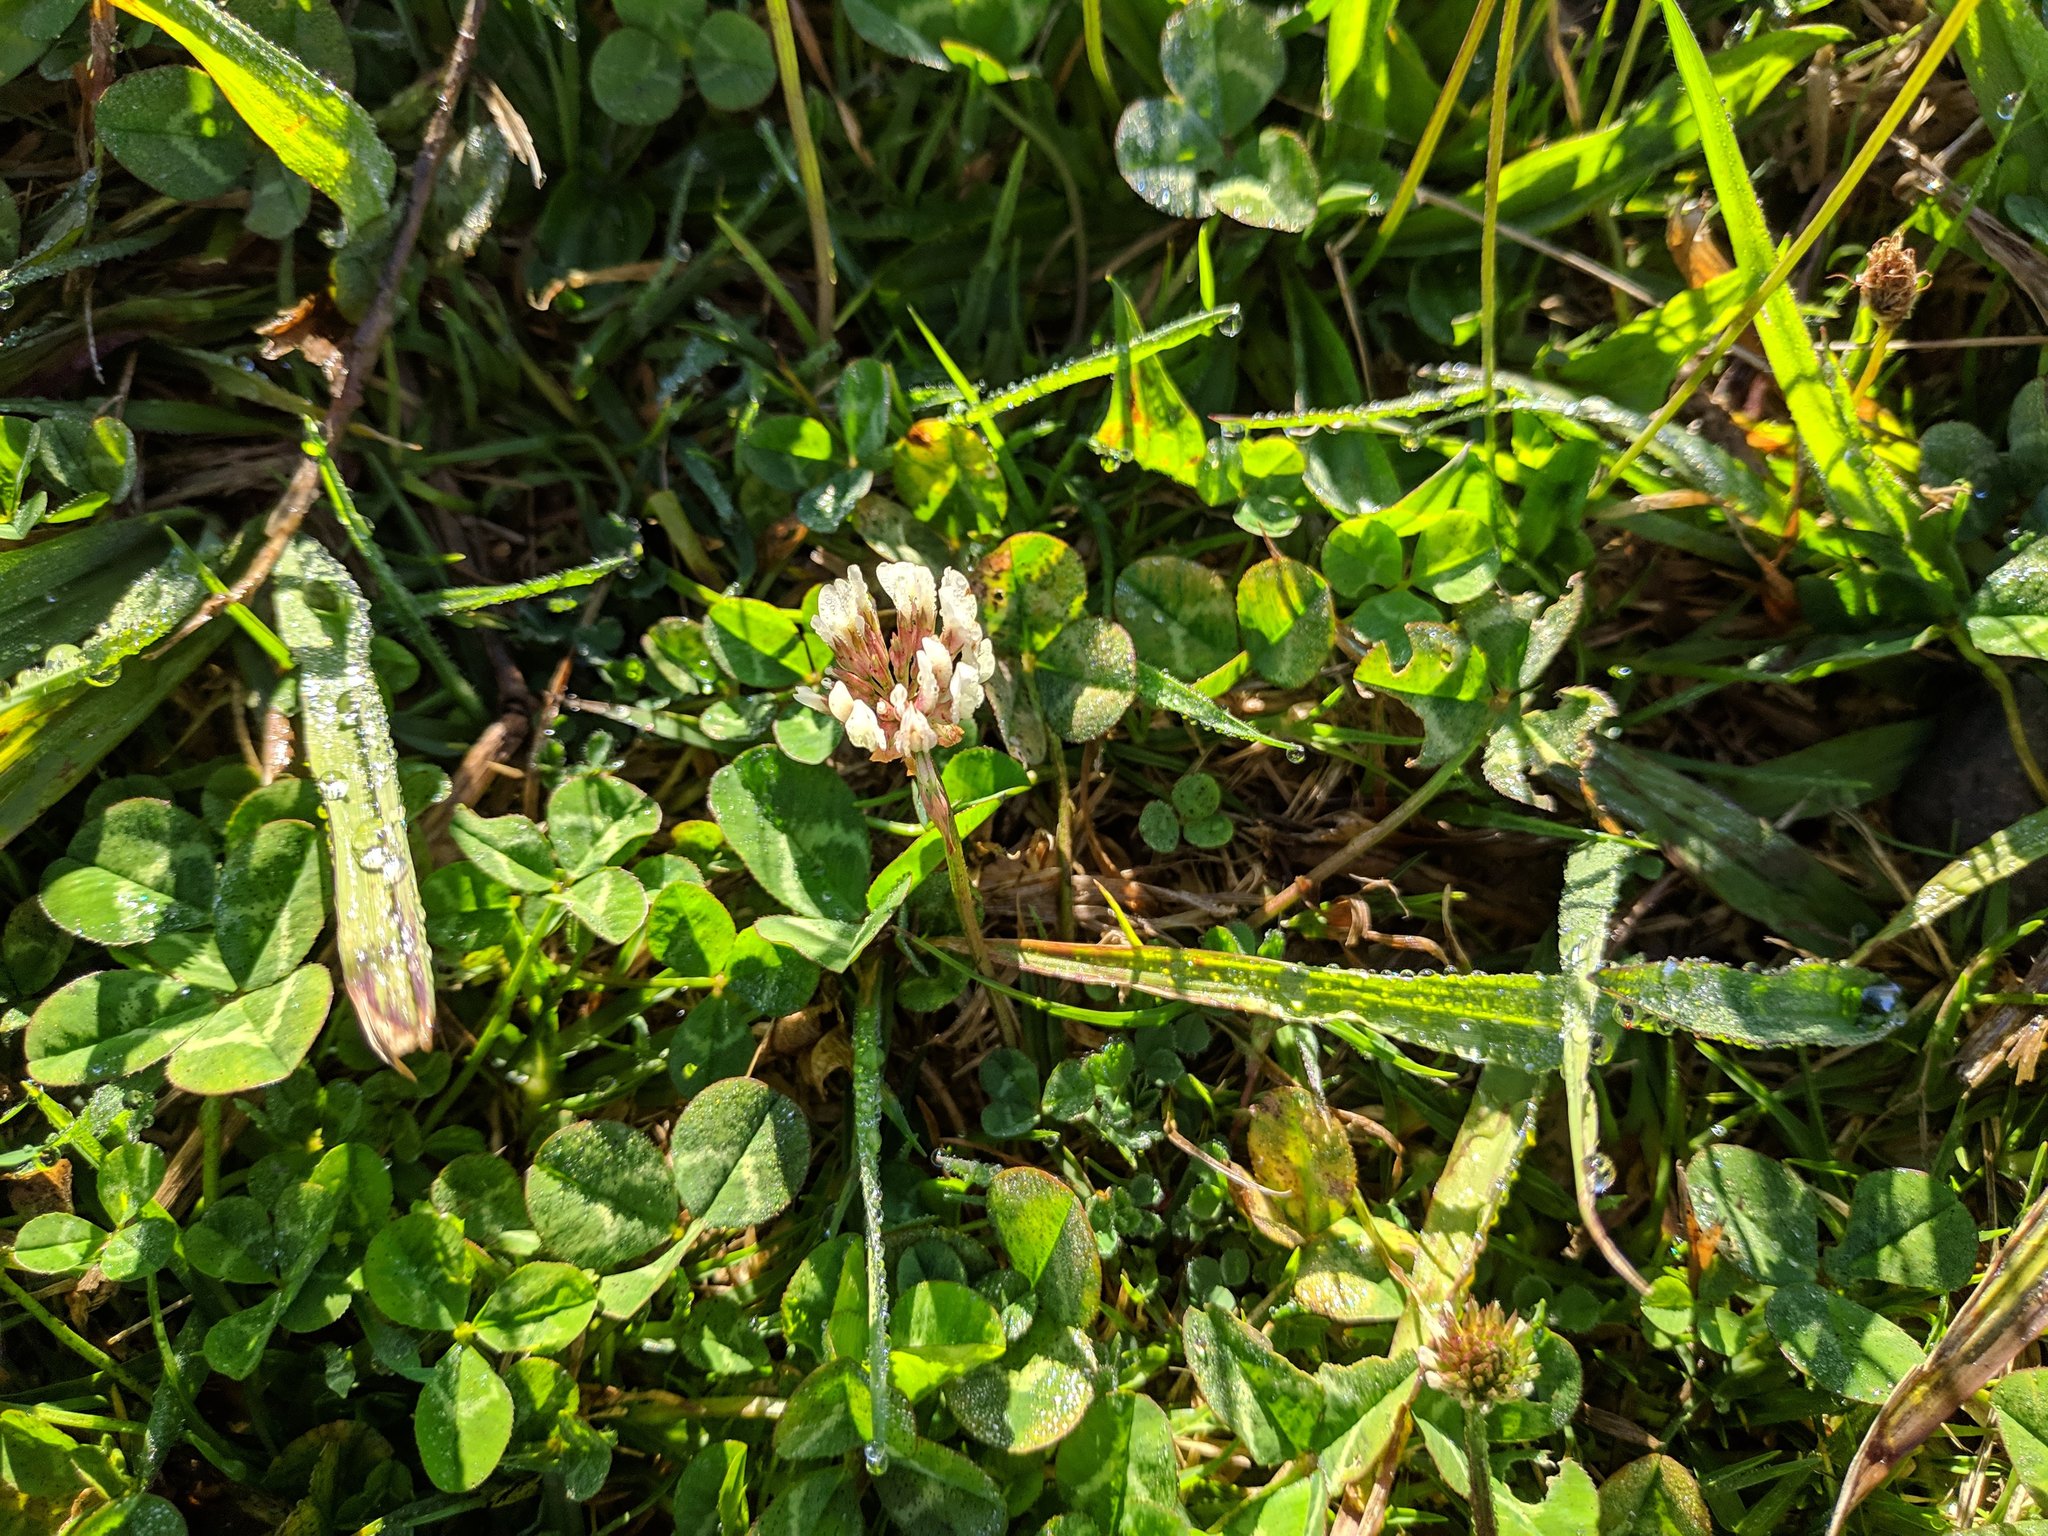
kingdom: Plantae
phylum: Tracheophyta
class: Magnoliopsida
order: Fabales
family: Fabaceae
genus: Trifolium
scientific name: Trifolium repens
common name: White clover
